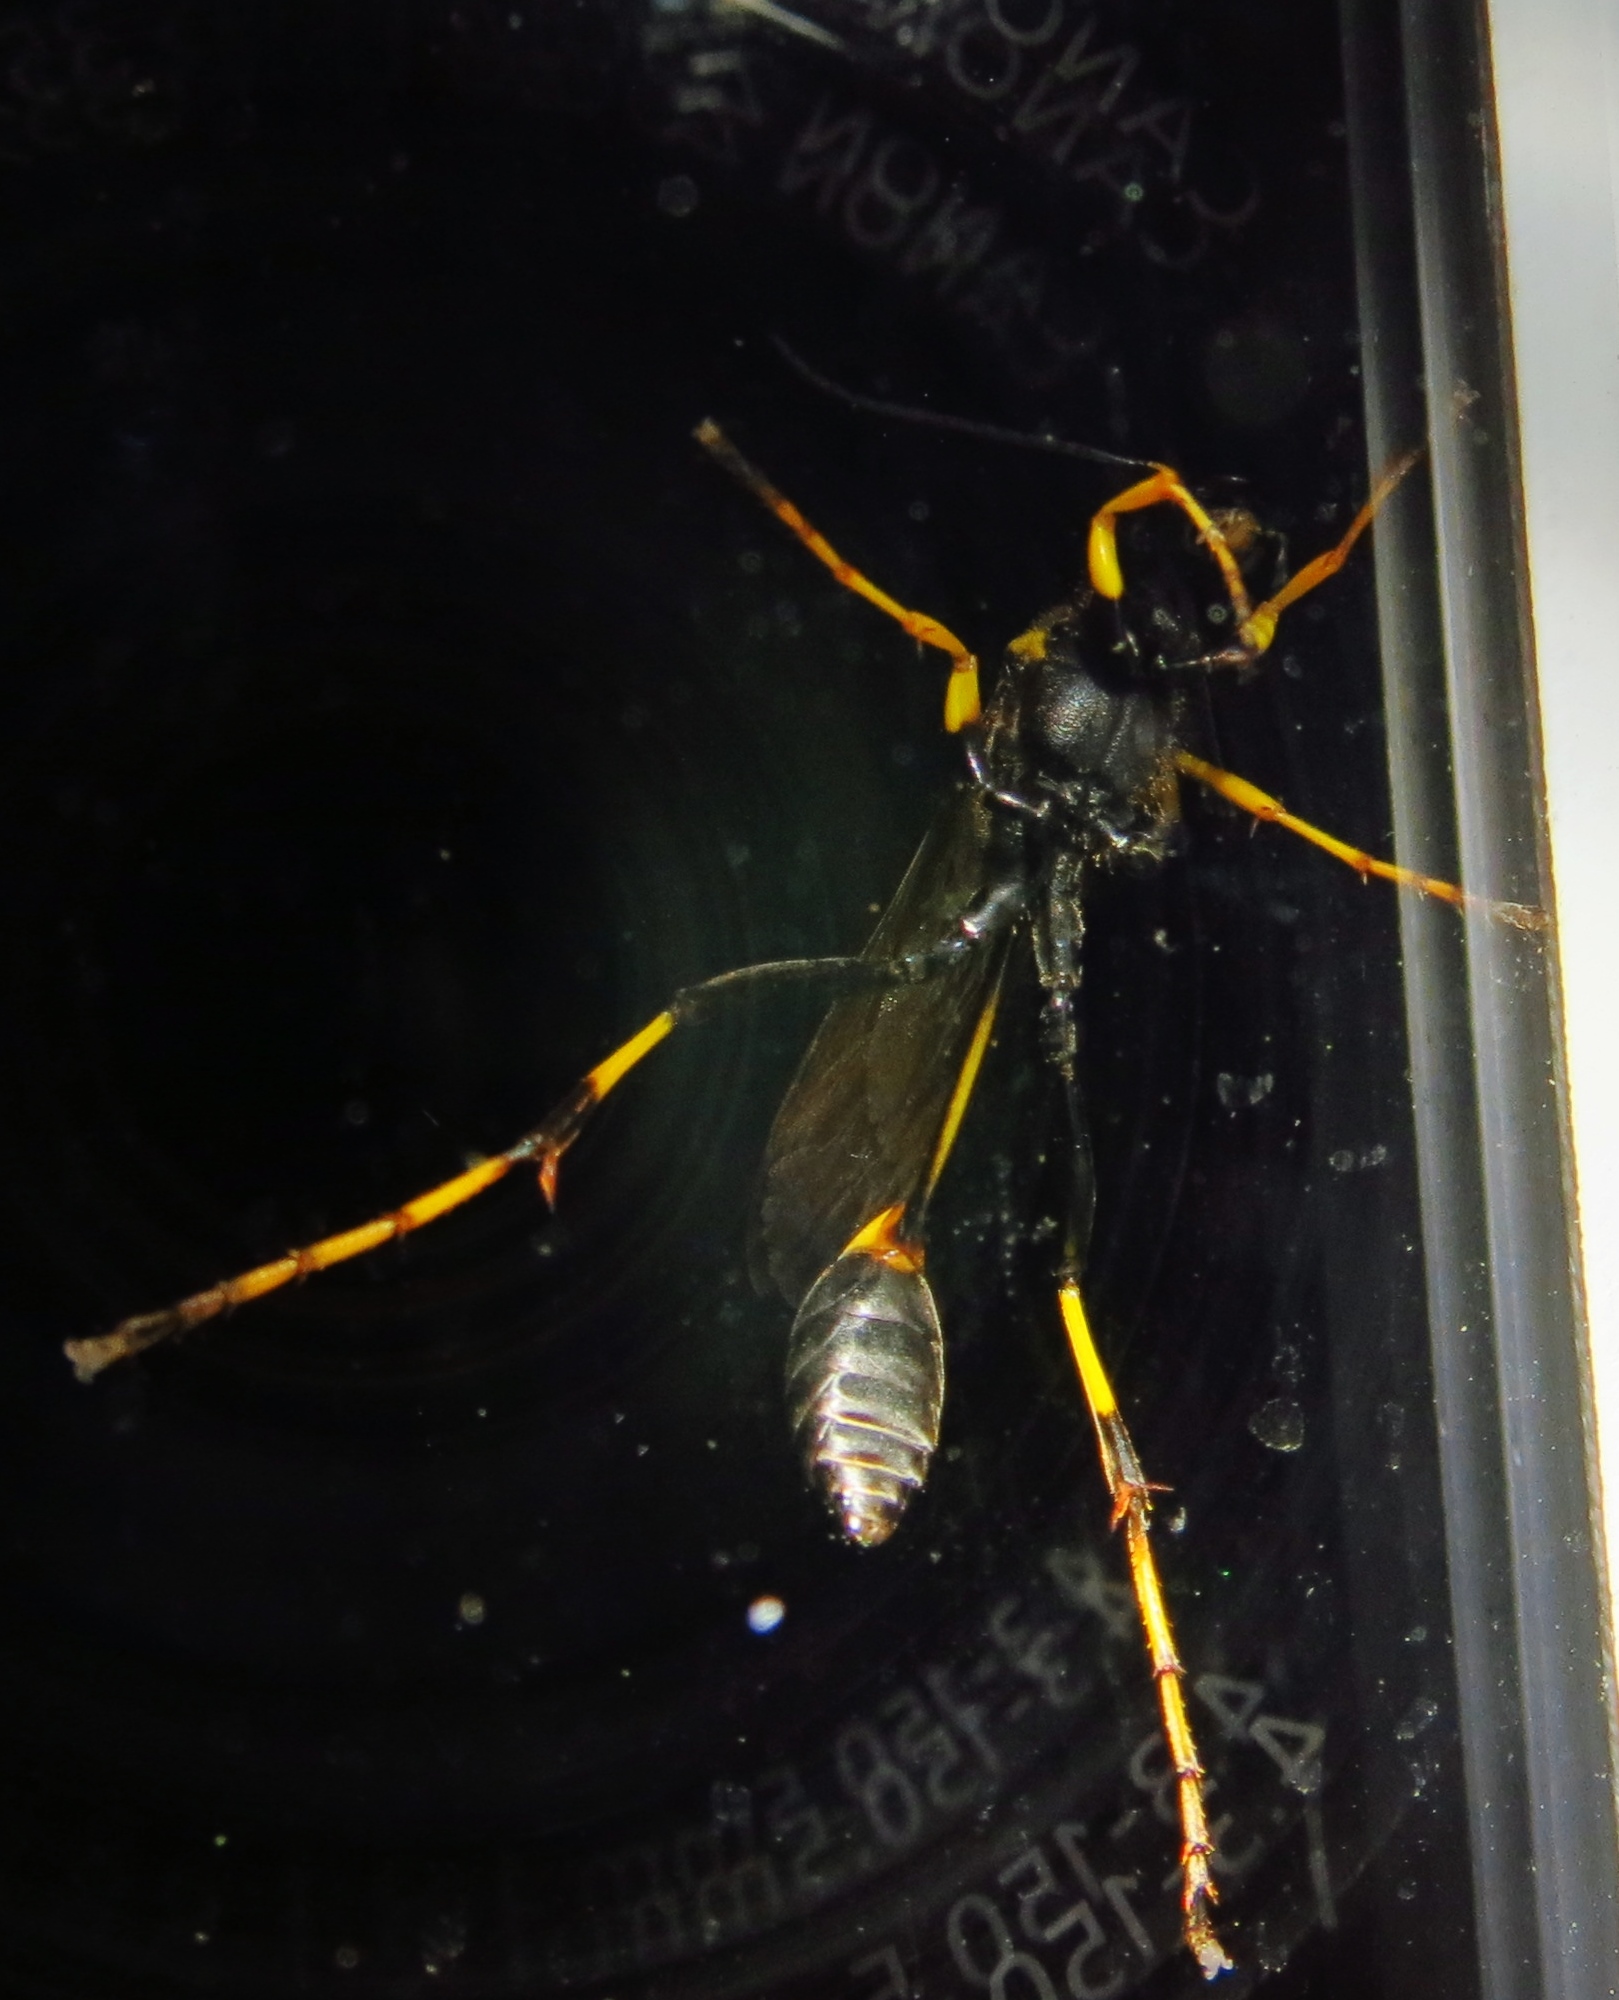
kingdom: Animalia
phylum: Arthropoda
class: Insecta
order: Hymenoptera
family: Sphecidae
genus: Sceliphron
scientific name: Sceliphron caementarium
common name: Mud dauber
